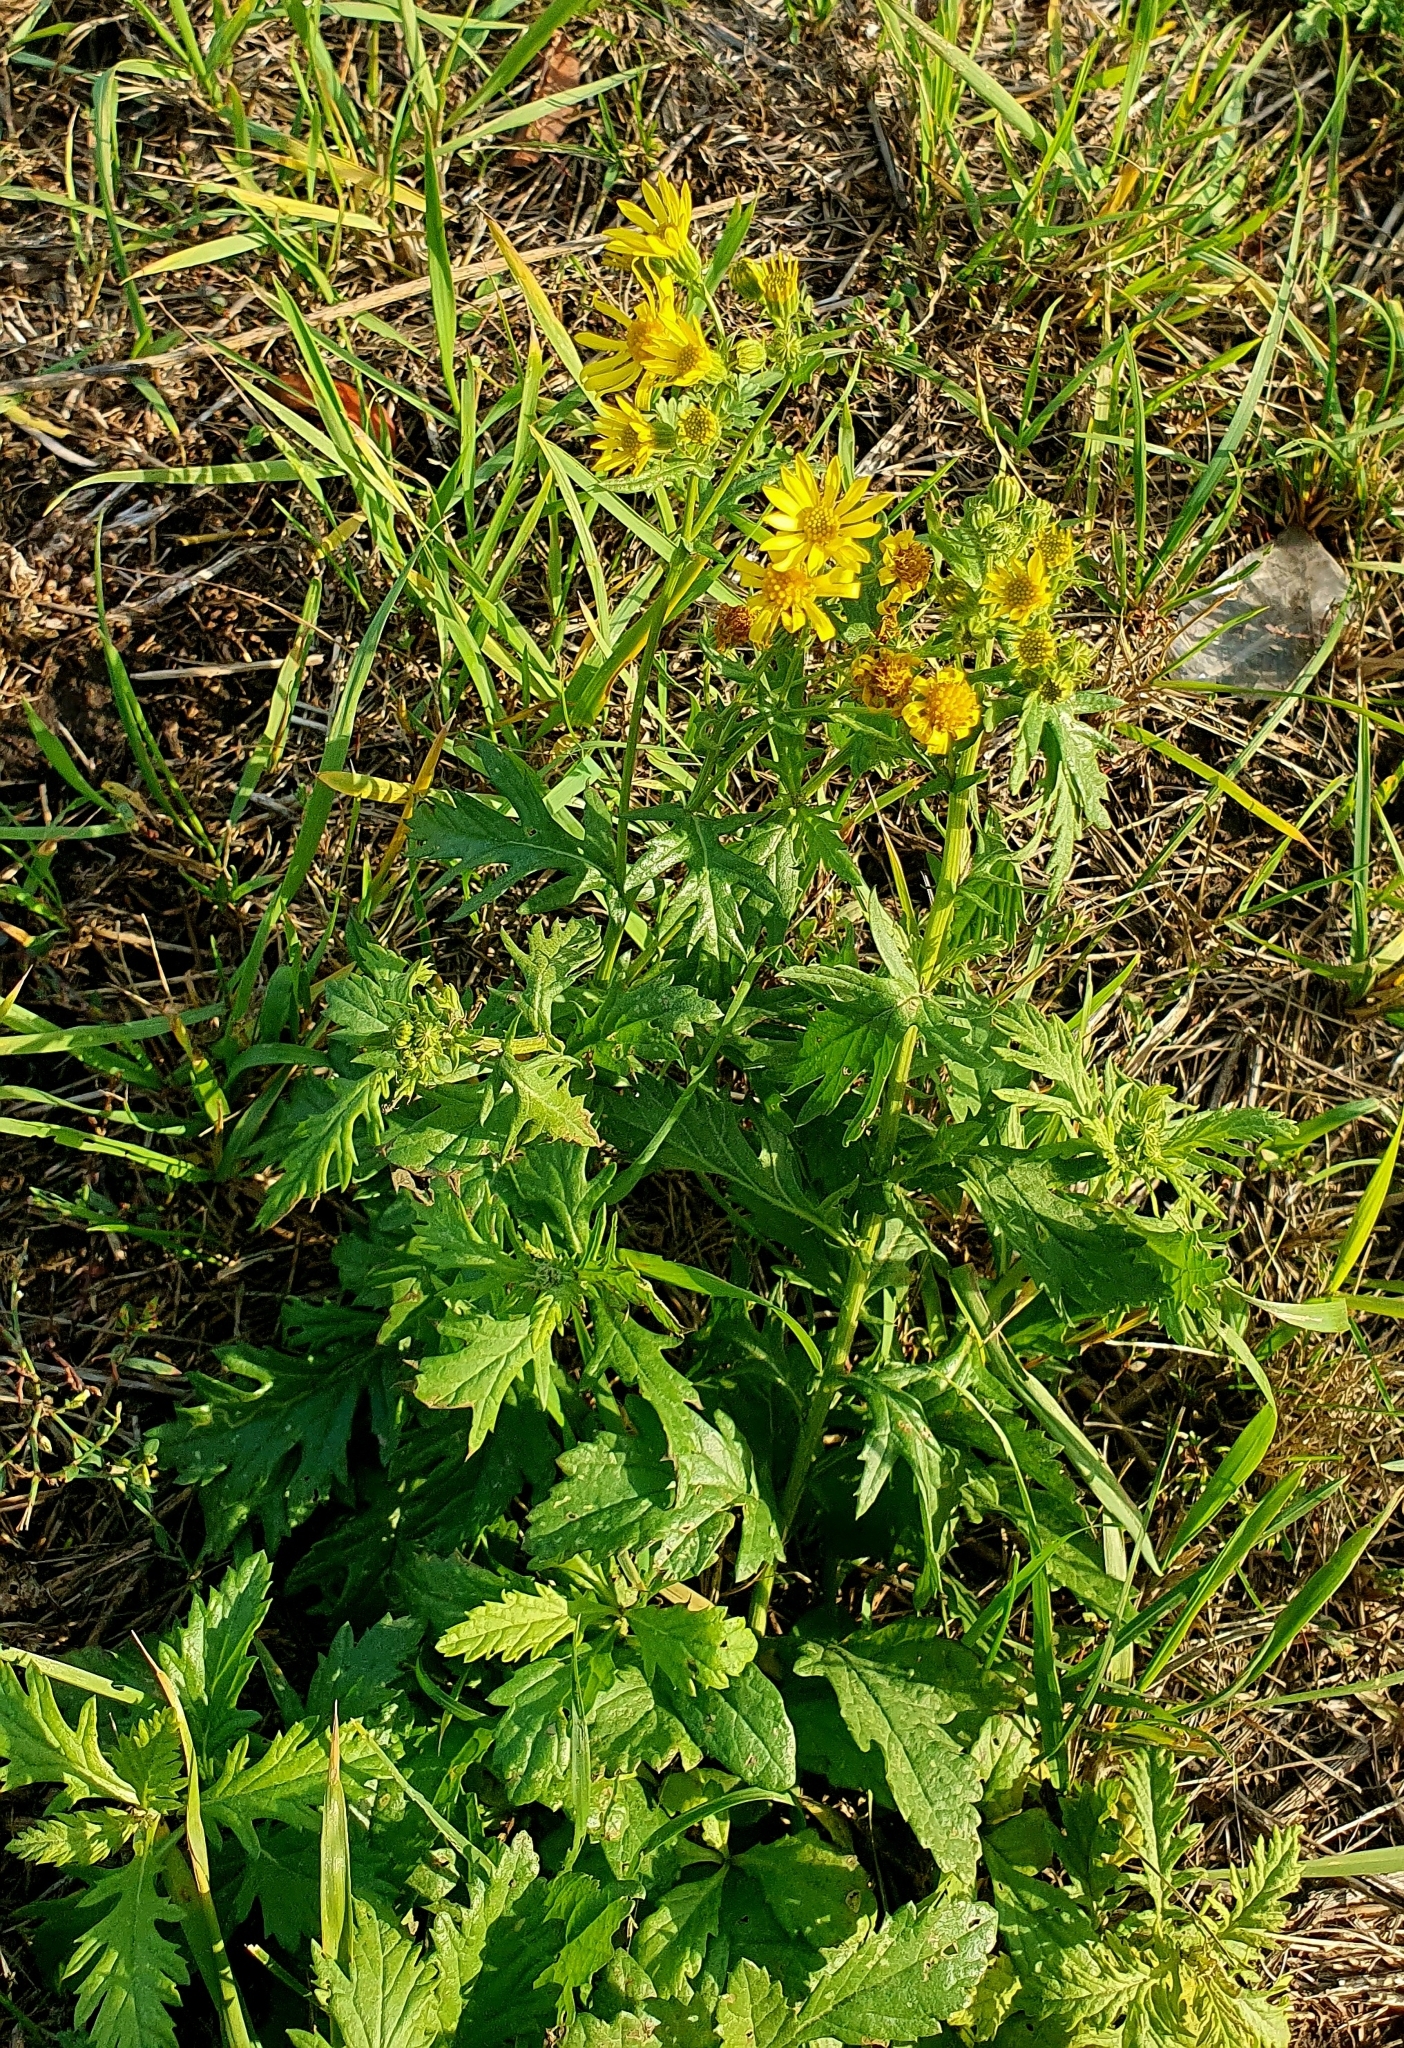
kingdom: Plantae
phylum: Tracheophyta
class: Magnoliopsida
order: Asterales
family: Asteraceae
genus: Jacobaea
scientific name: Jacobaea vulgaris
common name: Stinking willie
